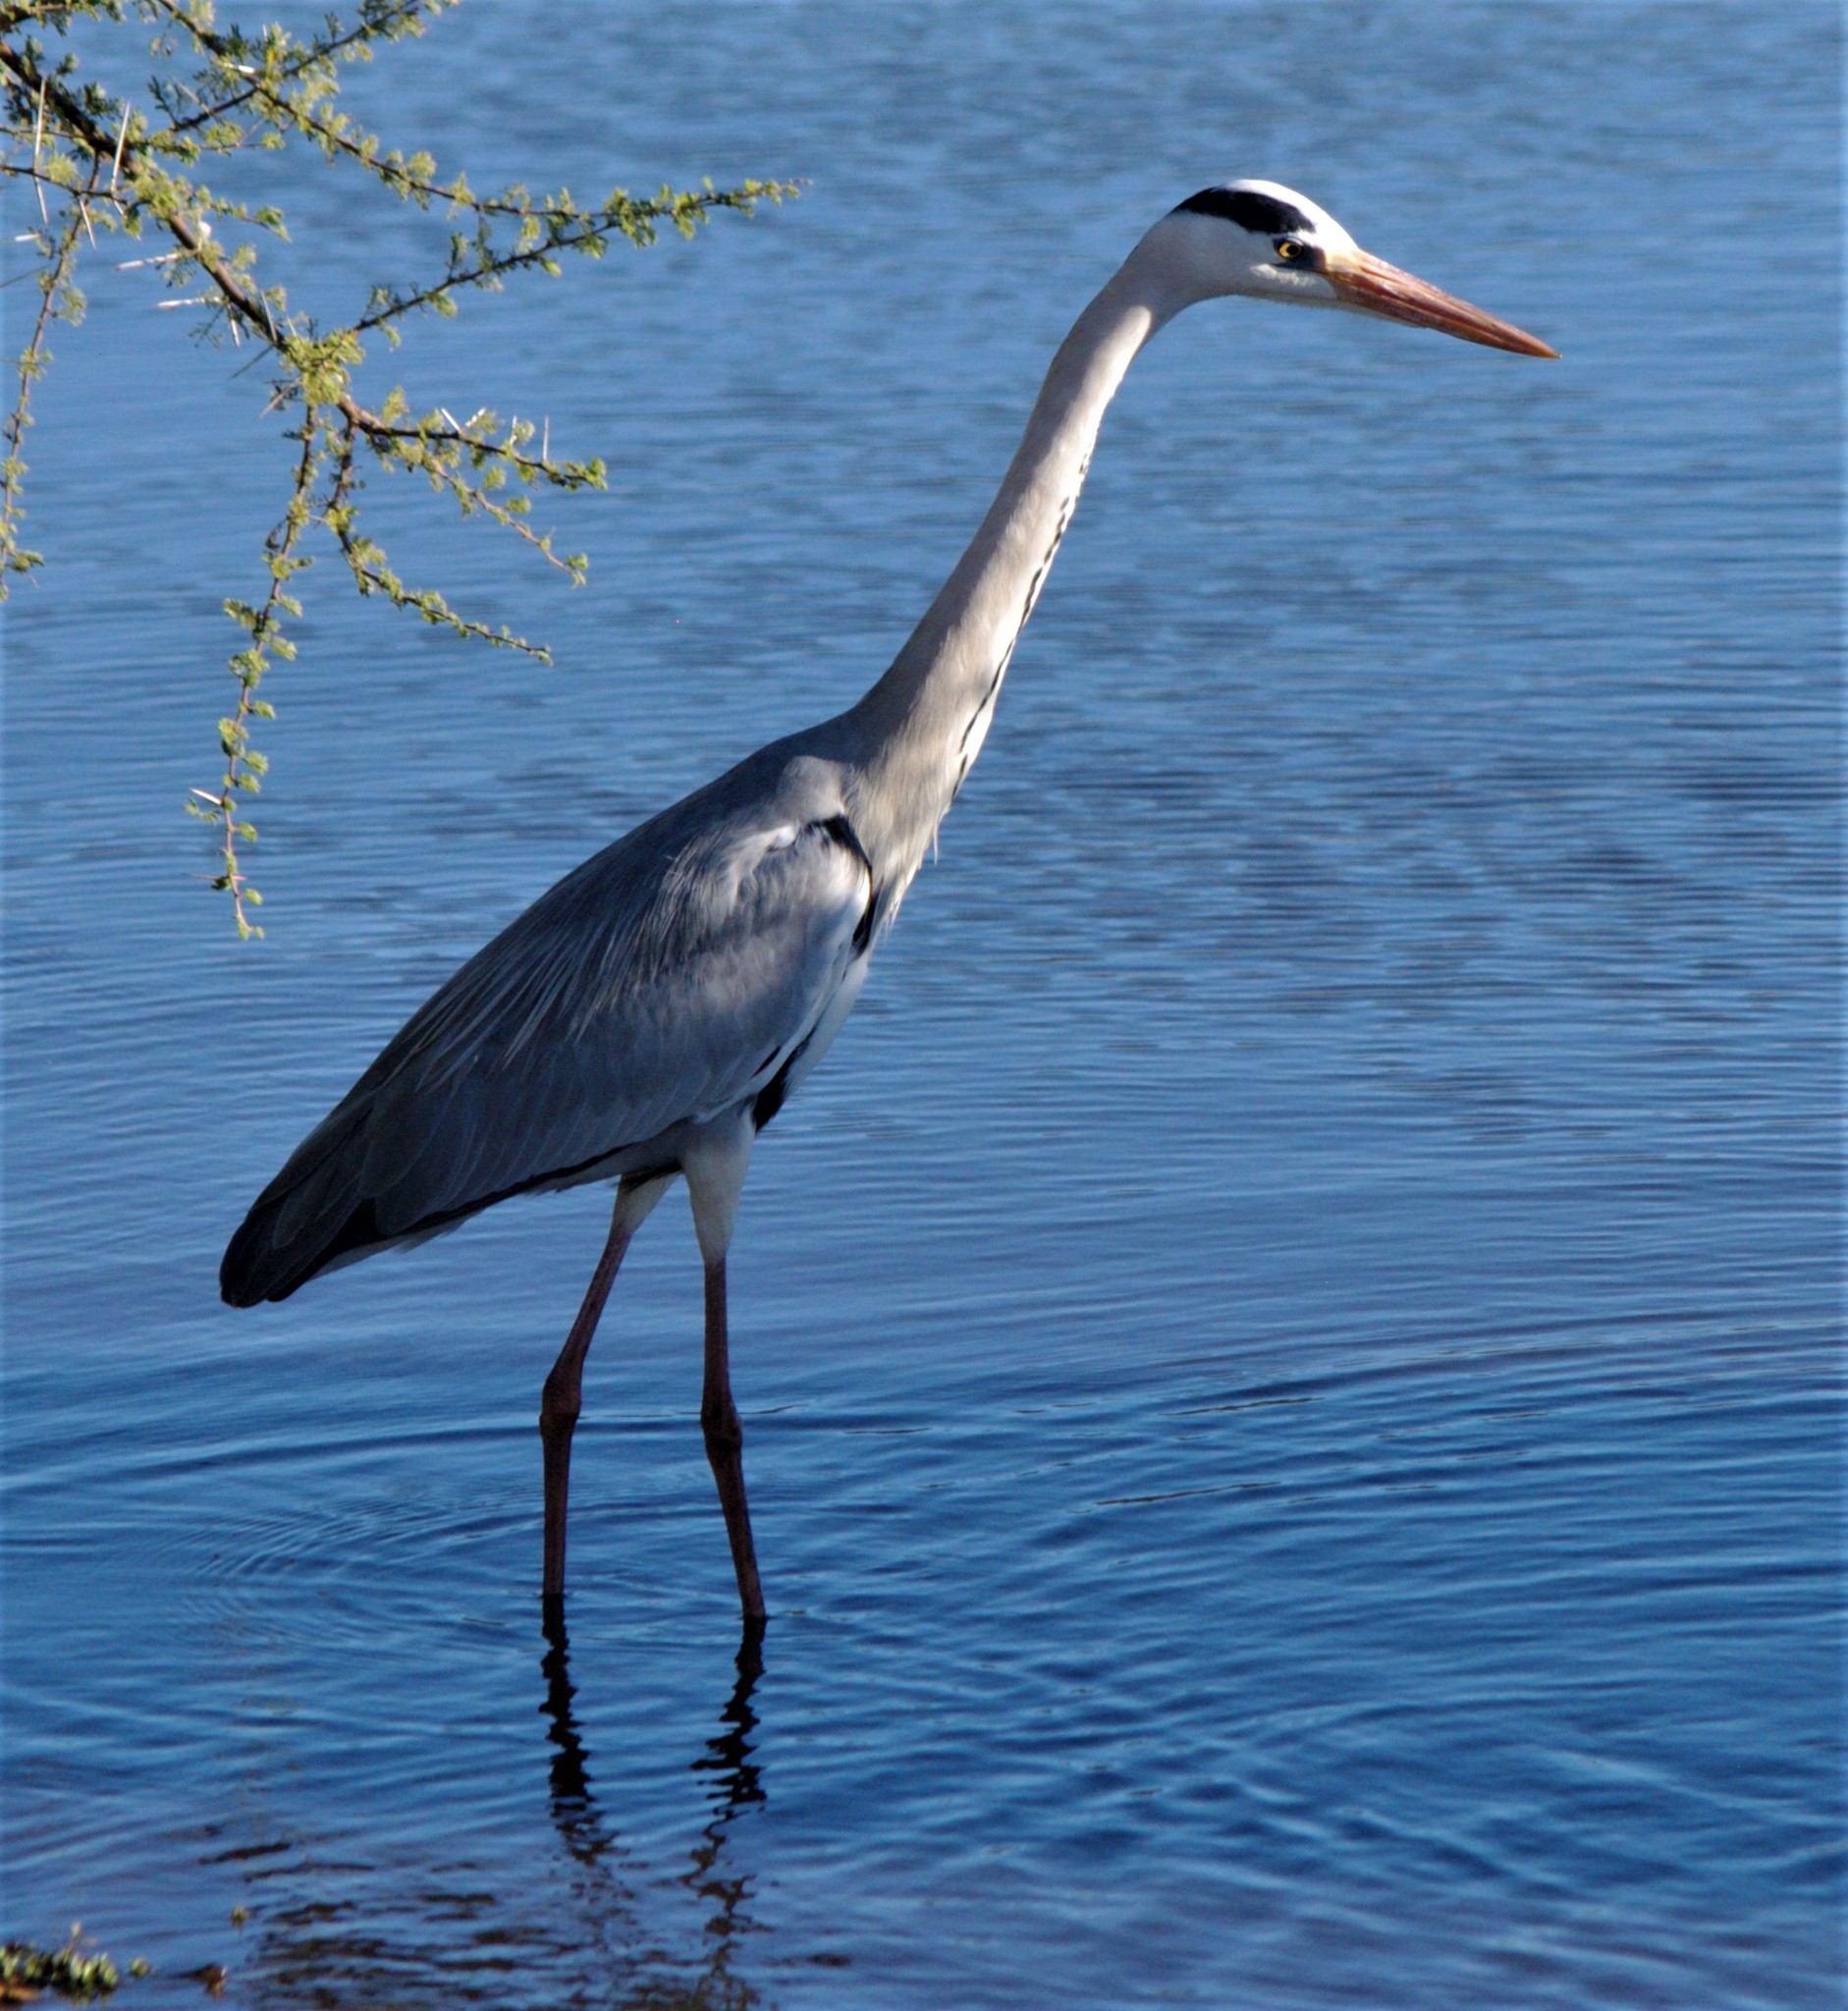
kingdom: Animalia
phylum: Chordata
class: Aves
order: Pelecaniformes
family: Ardeidae
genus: Ardea
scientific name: Ardea cinerea
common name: Grey heron
